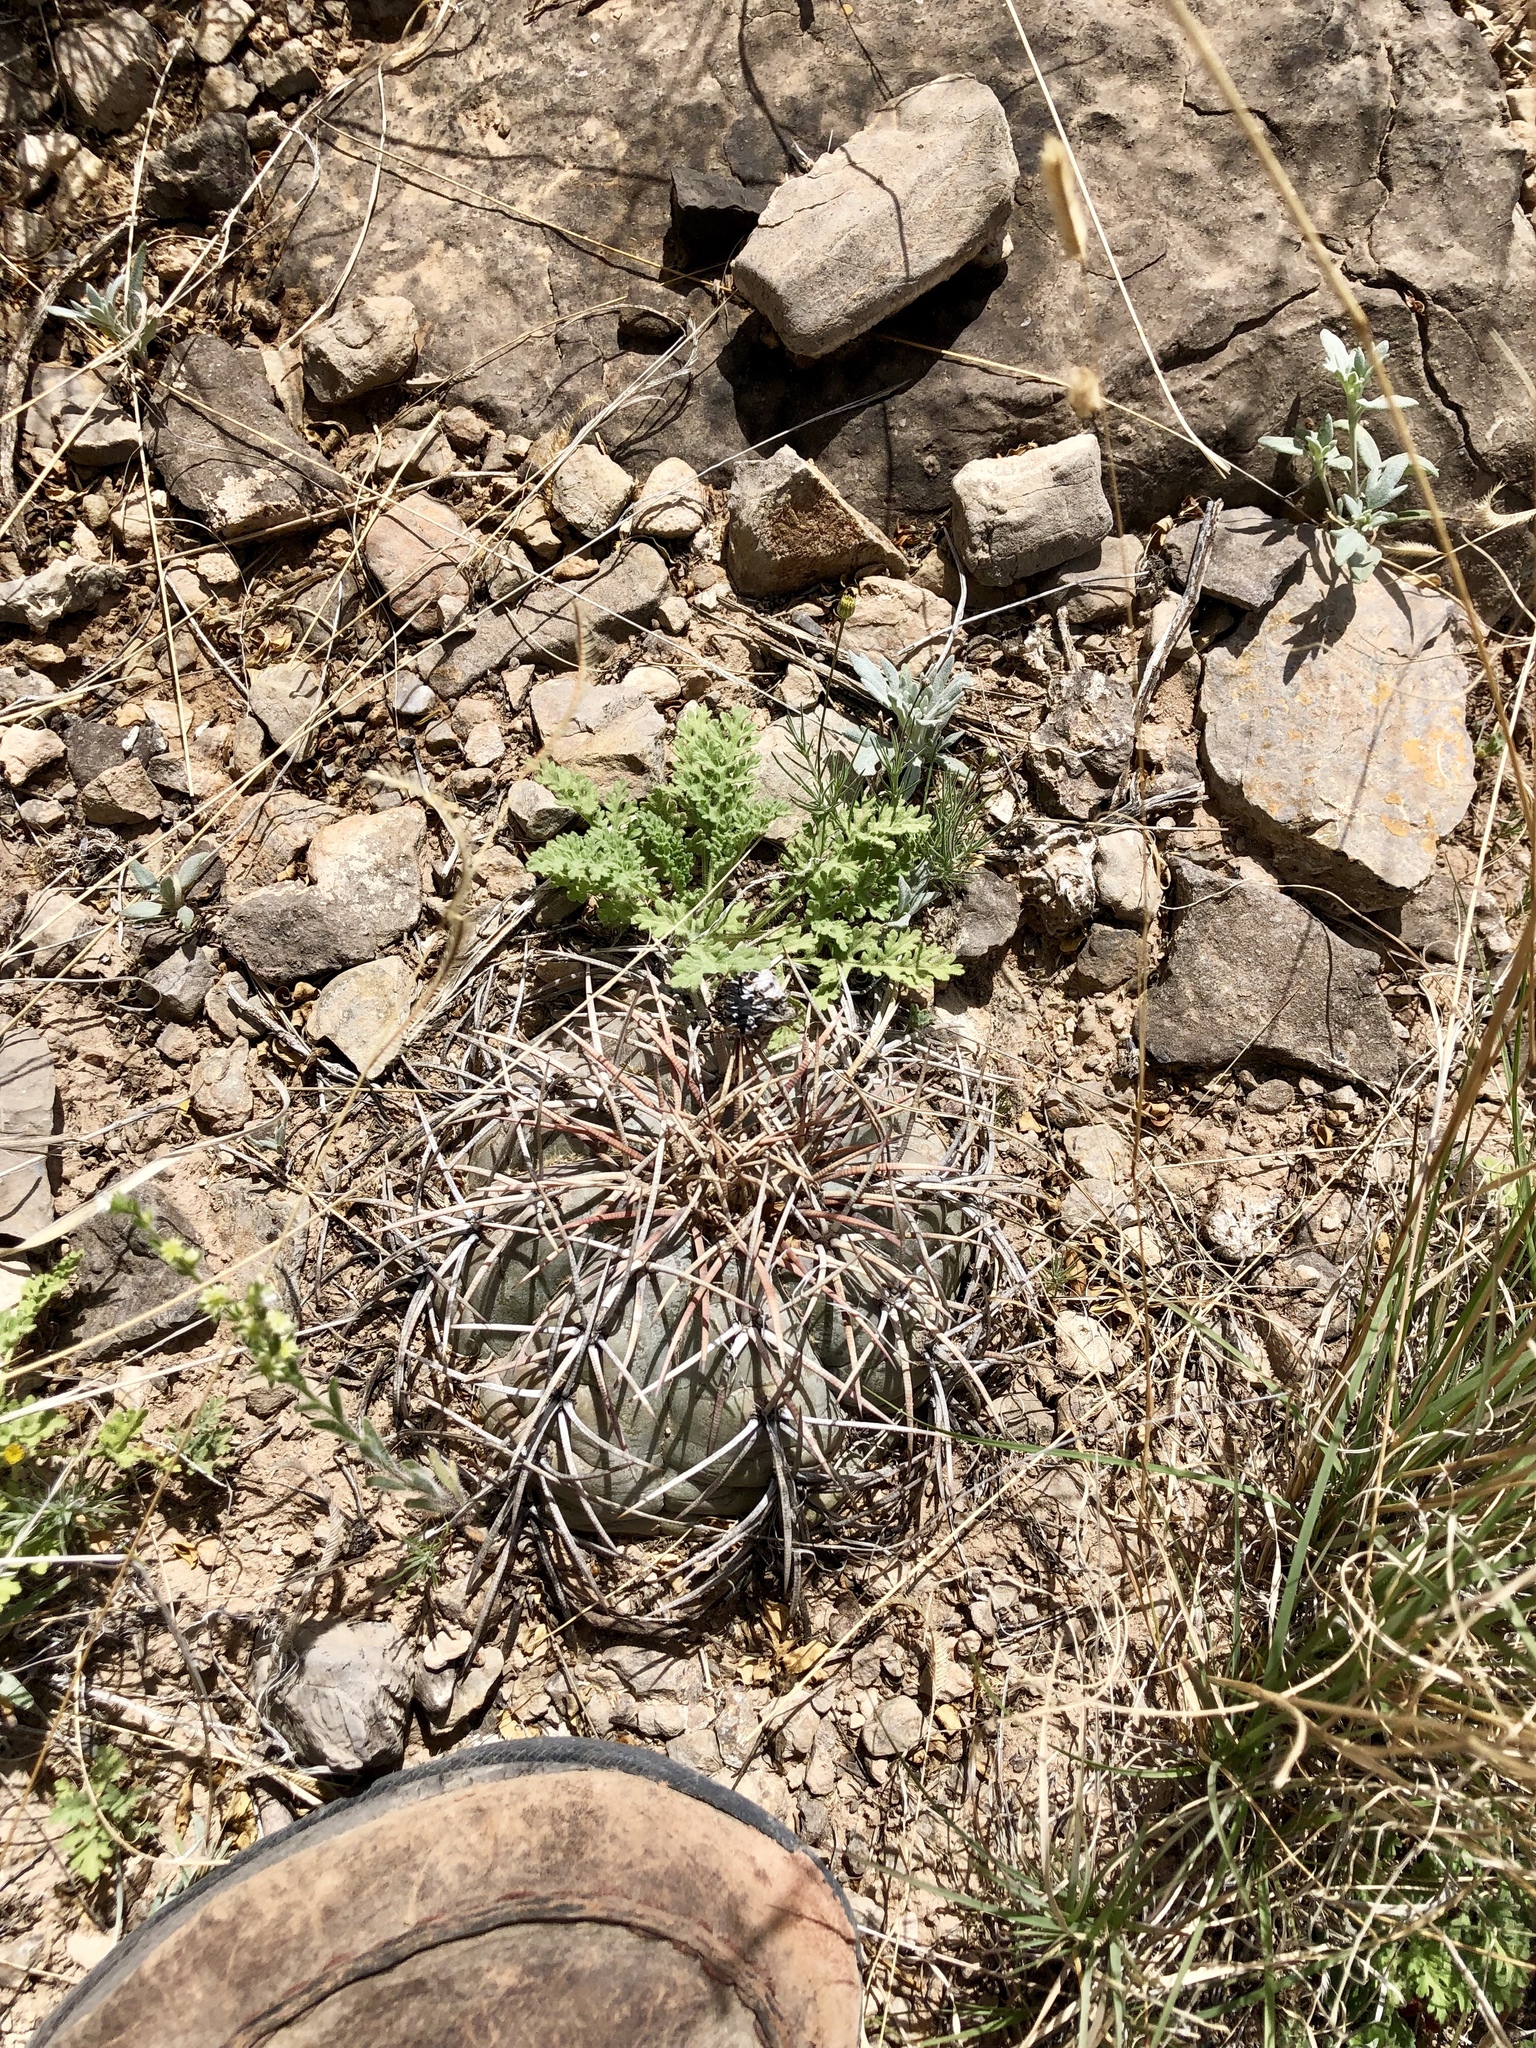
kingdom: Plantae
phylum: Tracheophyta
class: Magnoliopsida
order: Caryophyllales
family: Cactaceae
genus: Echinocactus
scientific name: Echinocactus horizonthalonius
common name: Devilshead
